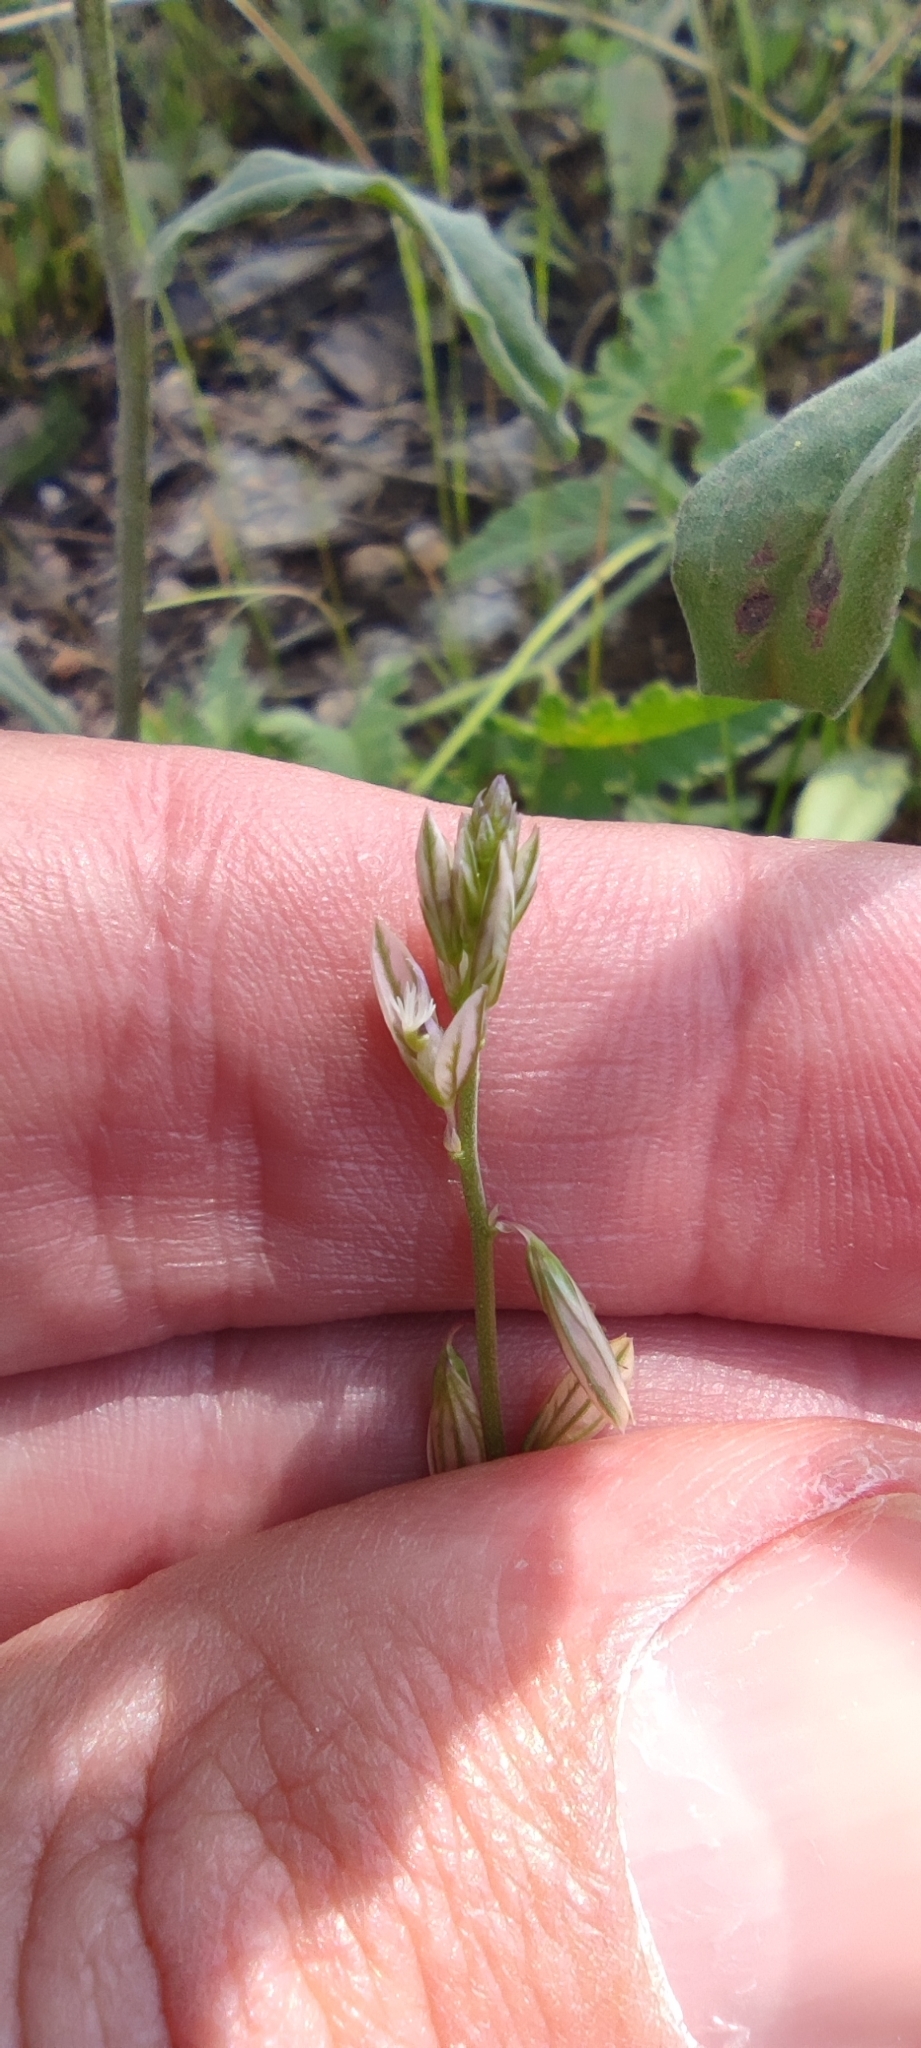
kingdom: Plantae
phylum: Tracheophyta
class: Magnoliopsida
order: Fabales
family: Polygalaceae
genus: Polygala
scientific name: Polygala monspeliaca
